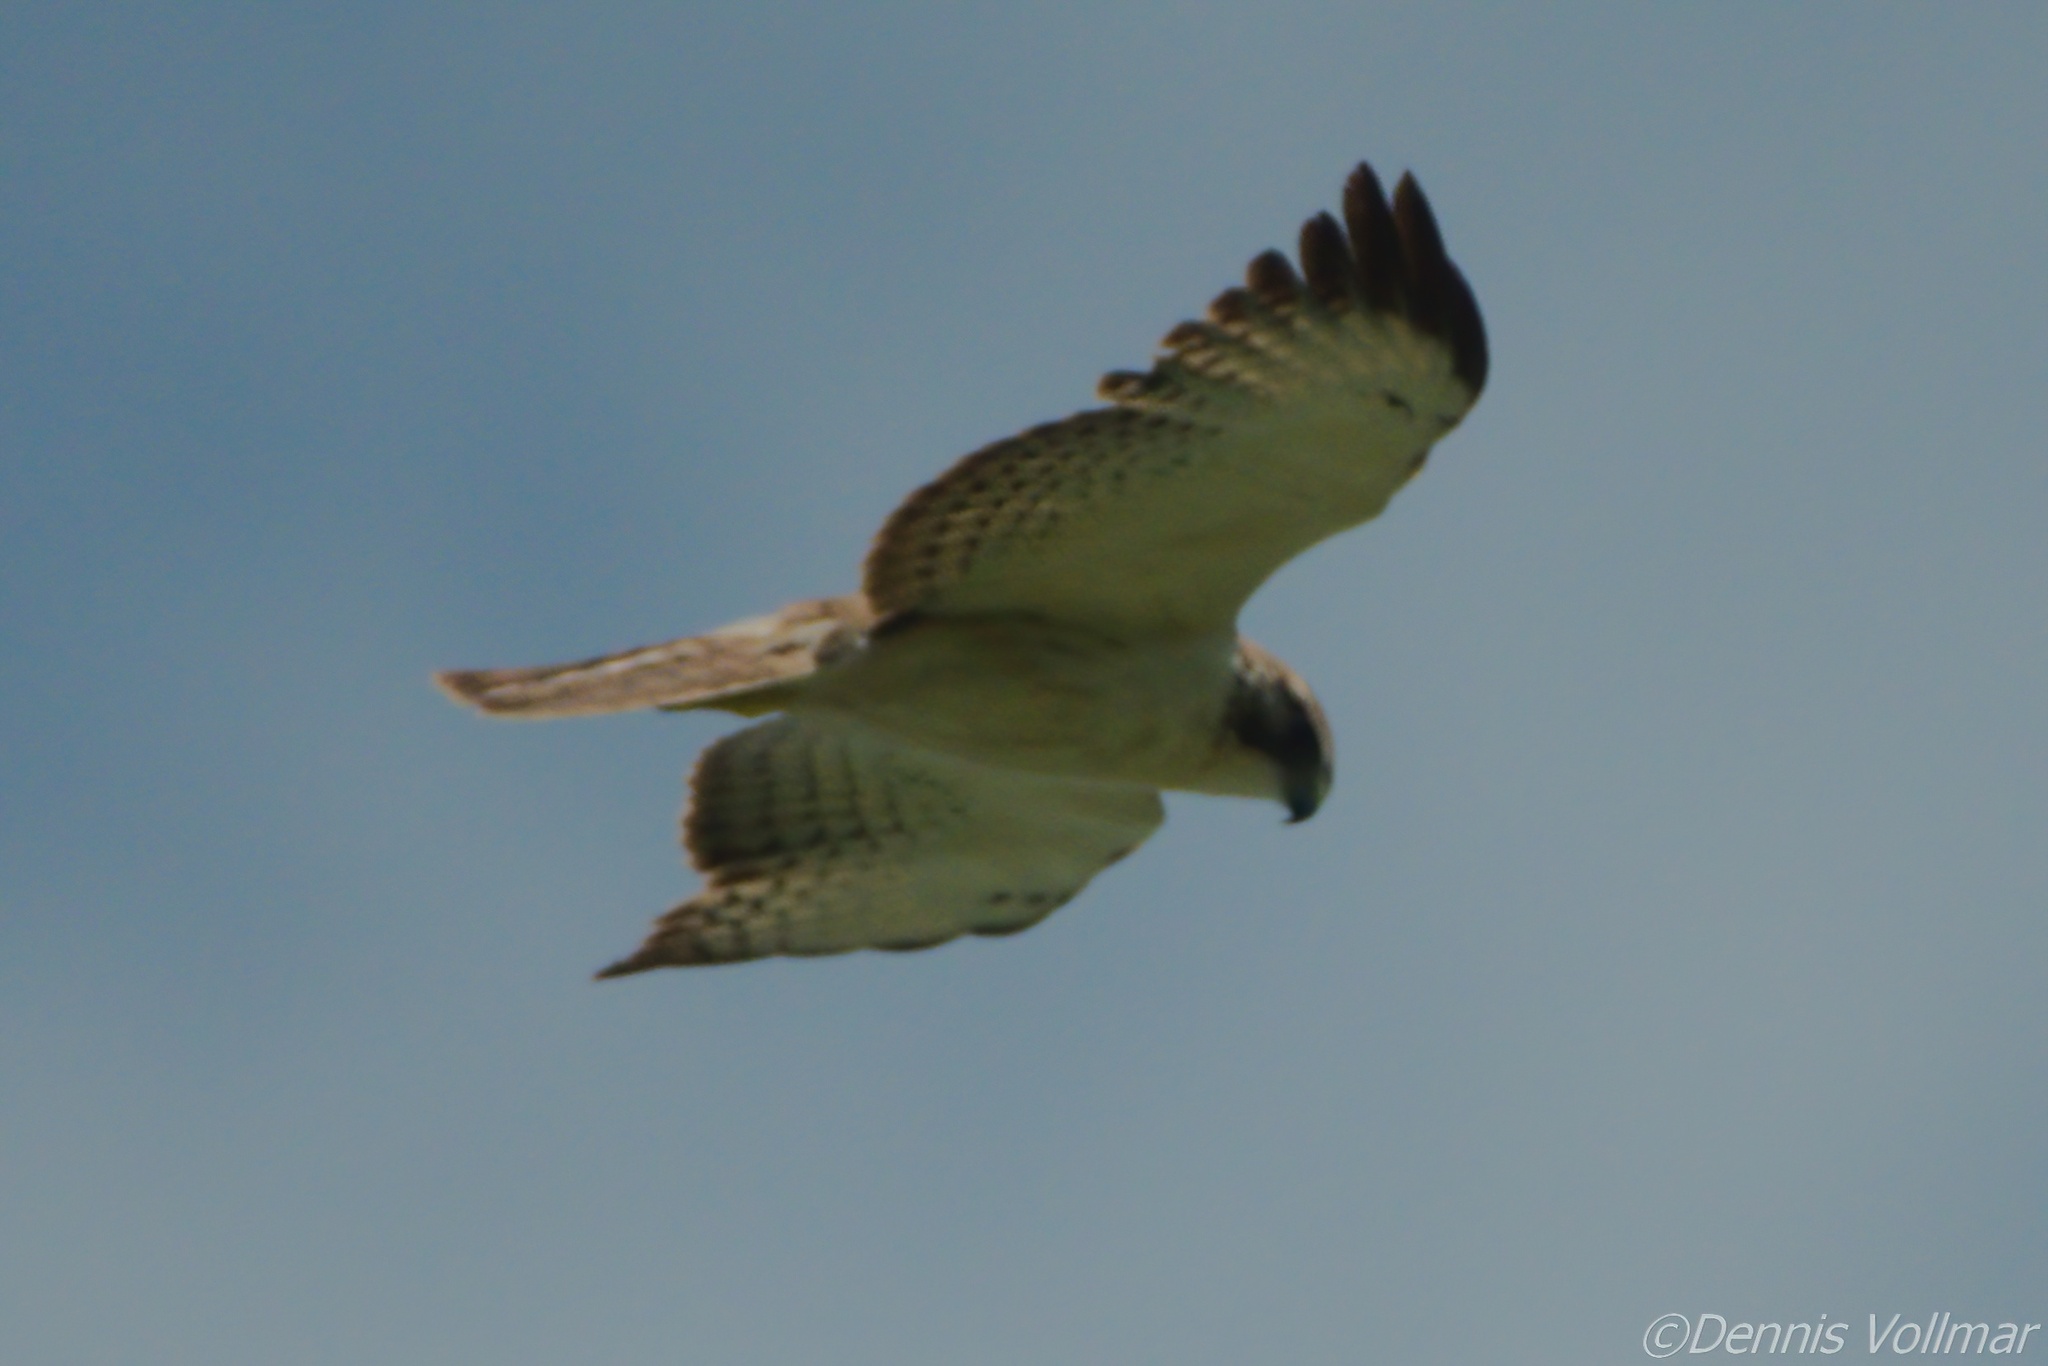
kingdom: Animalia
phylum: Chordata
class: Aves
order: Accipitriformes
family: Accipitridae
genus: Buteo
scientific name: Buteo brachyurus
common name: Short-tailed hawk
